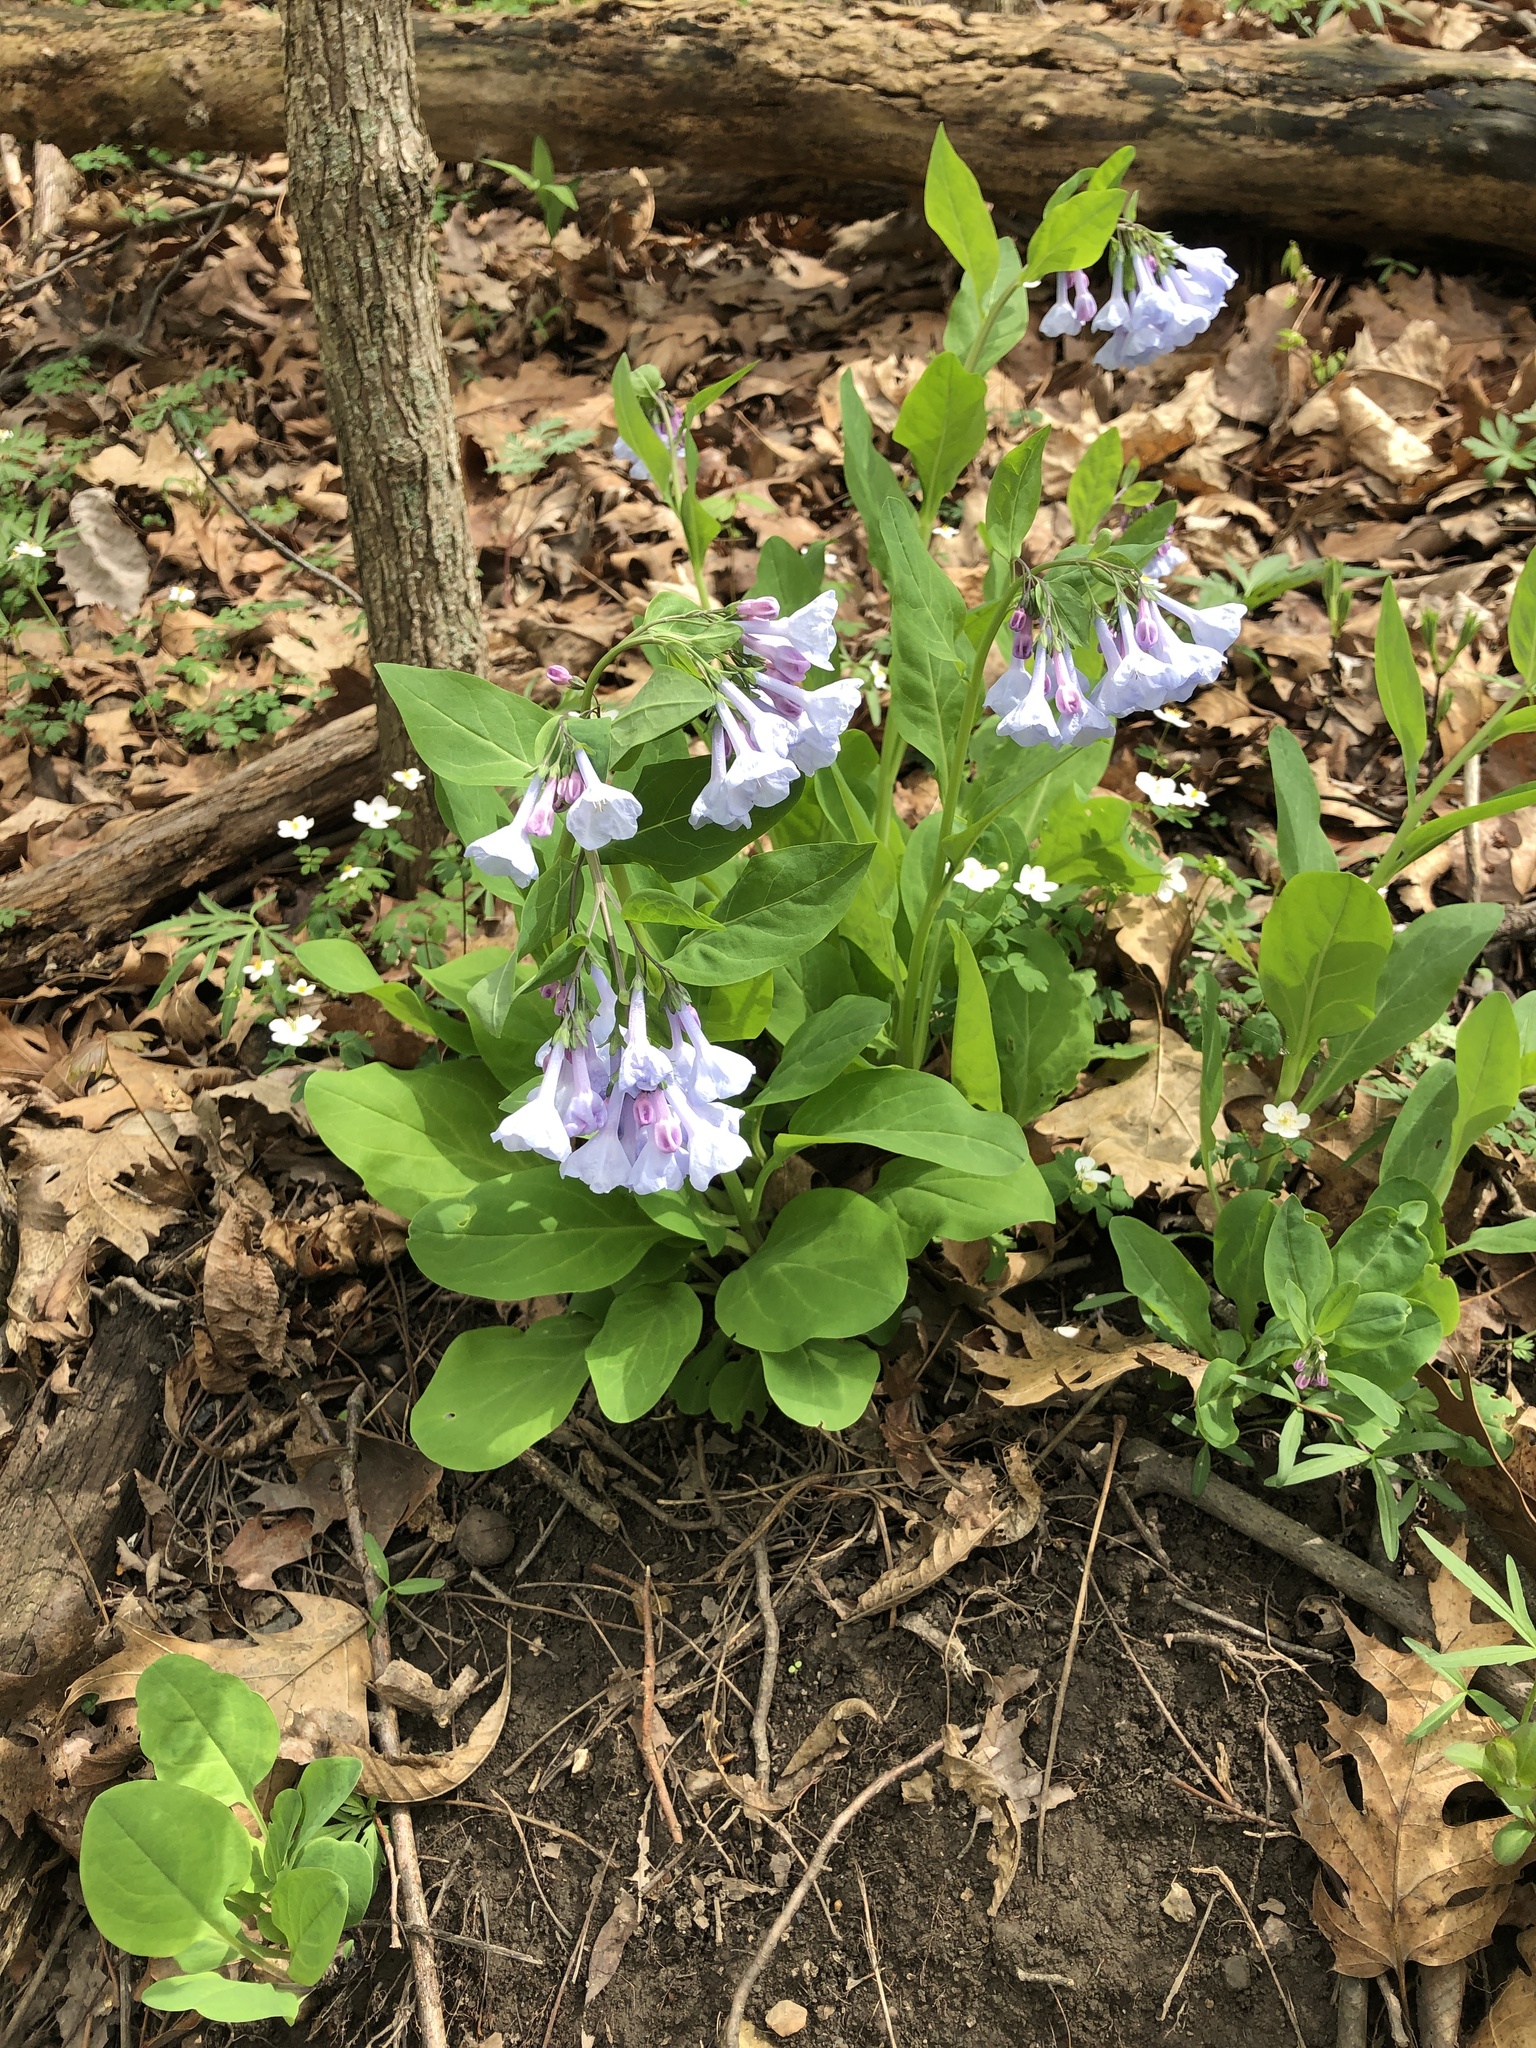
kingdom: Plantae
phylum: Tracheophyta
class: Magnoliopsida
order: Boraginales
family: Boraginaceae
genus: Mertensia
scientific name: Mertensia virginica
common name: Virginia bluebells
